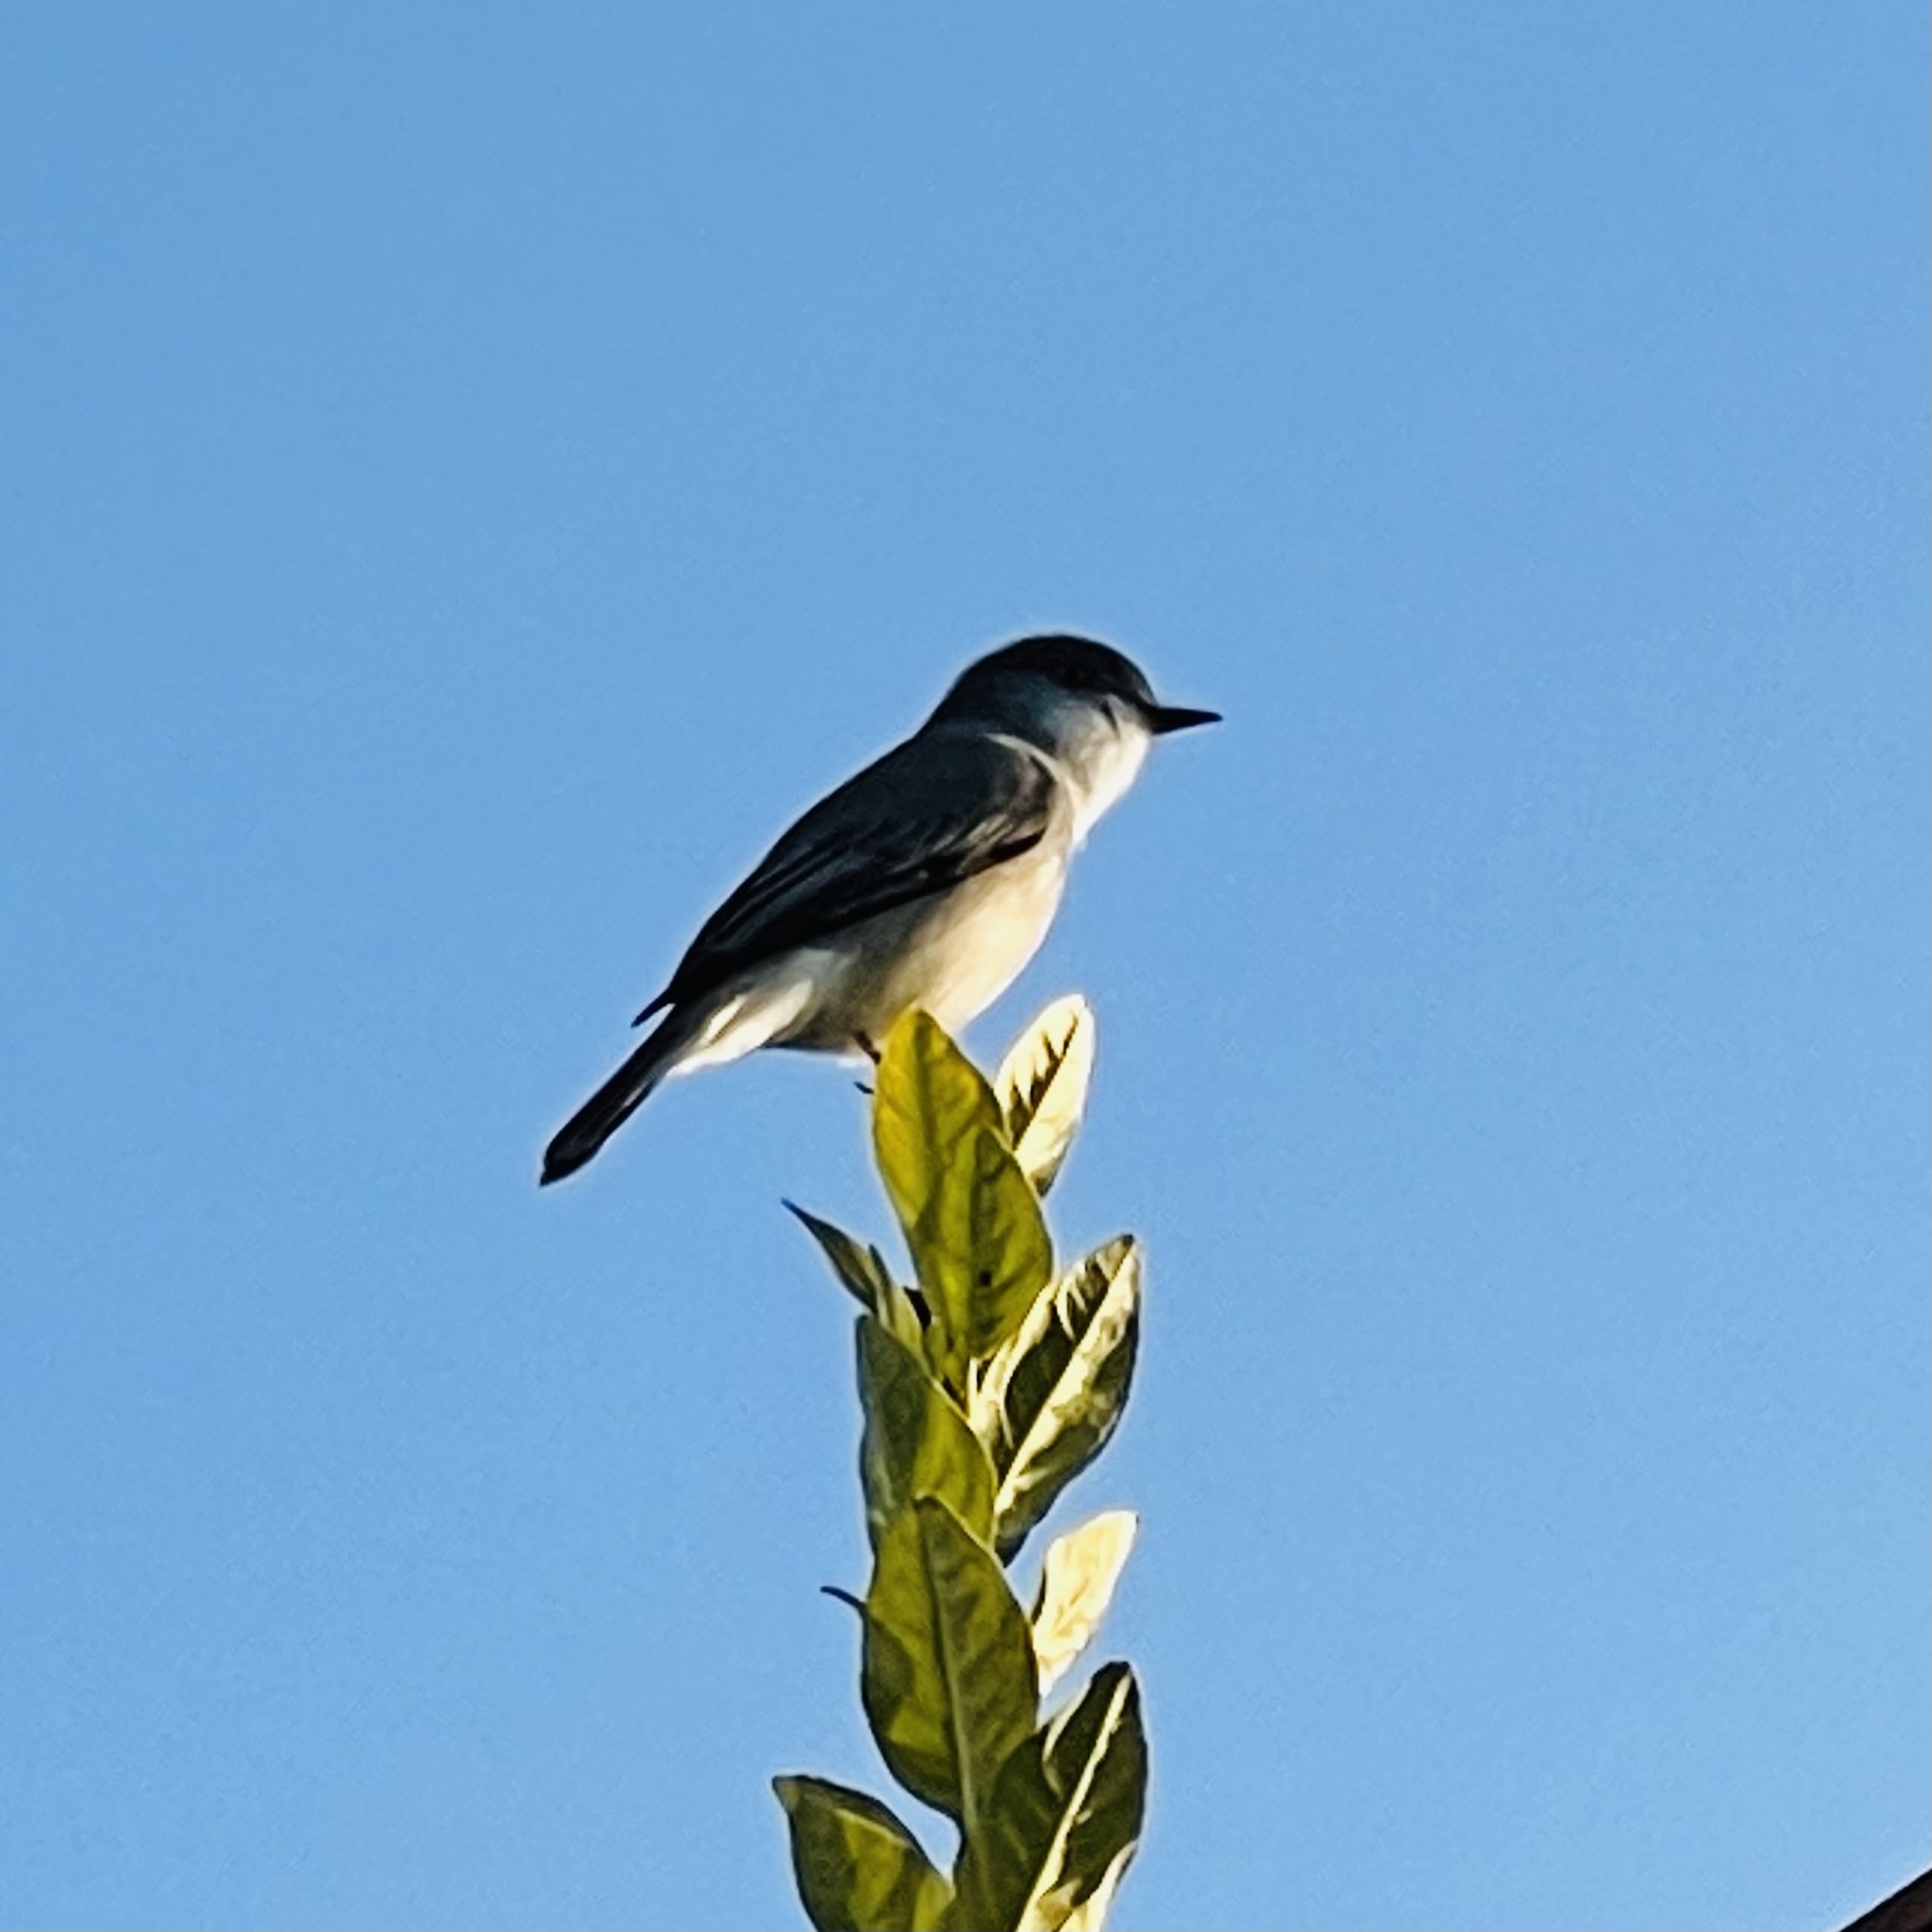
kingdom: Animalia
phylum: Chordata
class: Aves
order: Passeriformes
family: Tyrannidae
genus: Xolmis
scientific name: Xolmis pyrope
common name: Fire-eyed diucon
